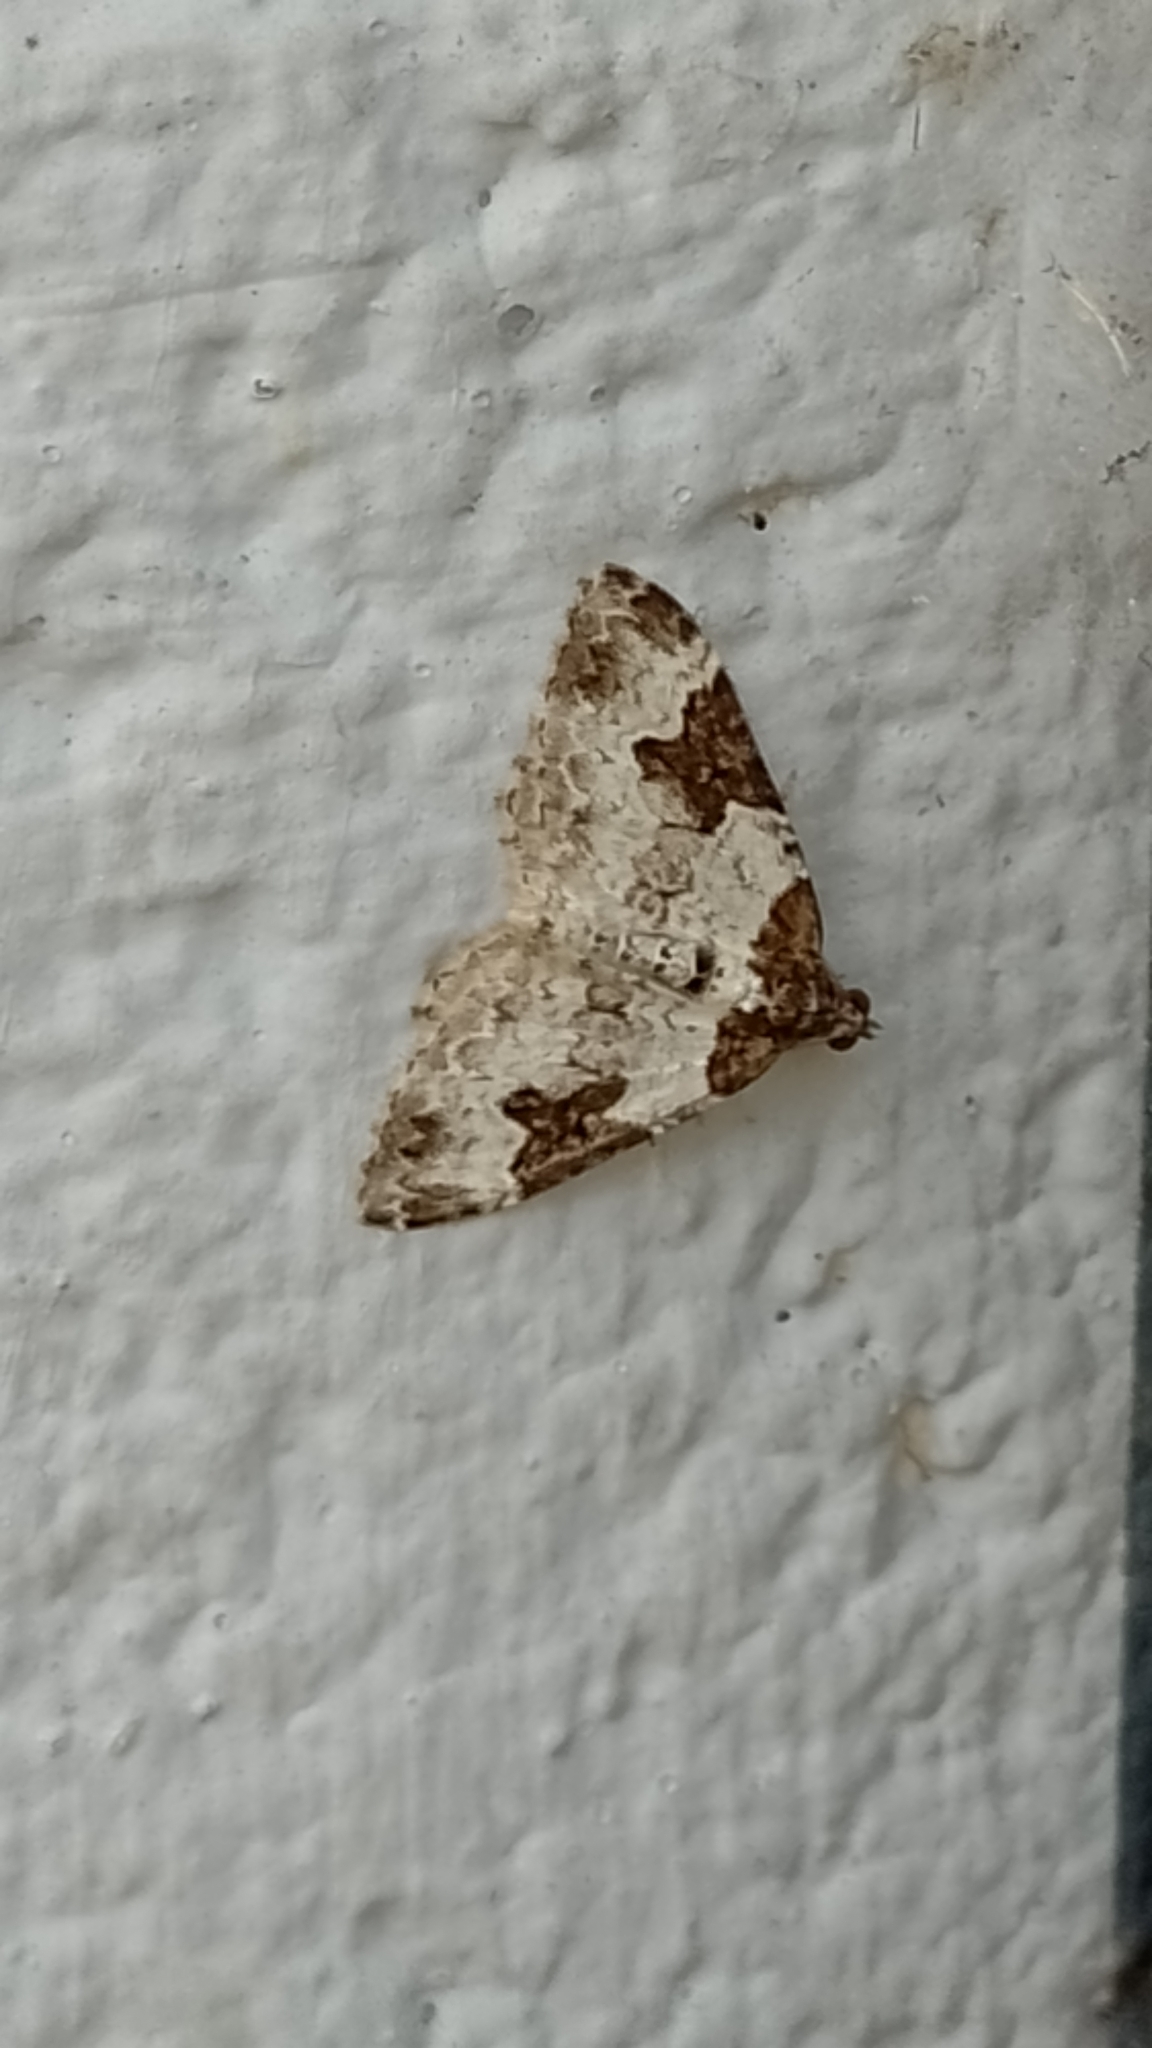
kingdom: Animalia
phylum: Arthropoda
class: Insecta
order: Lepidoptera
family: Geometridae
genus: Xanthorhoe
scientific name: Xanthorhoe fluctuata
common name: Garden carpet
